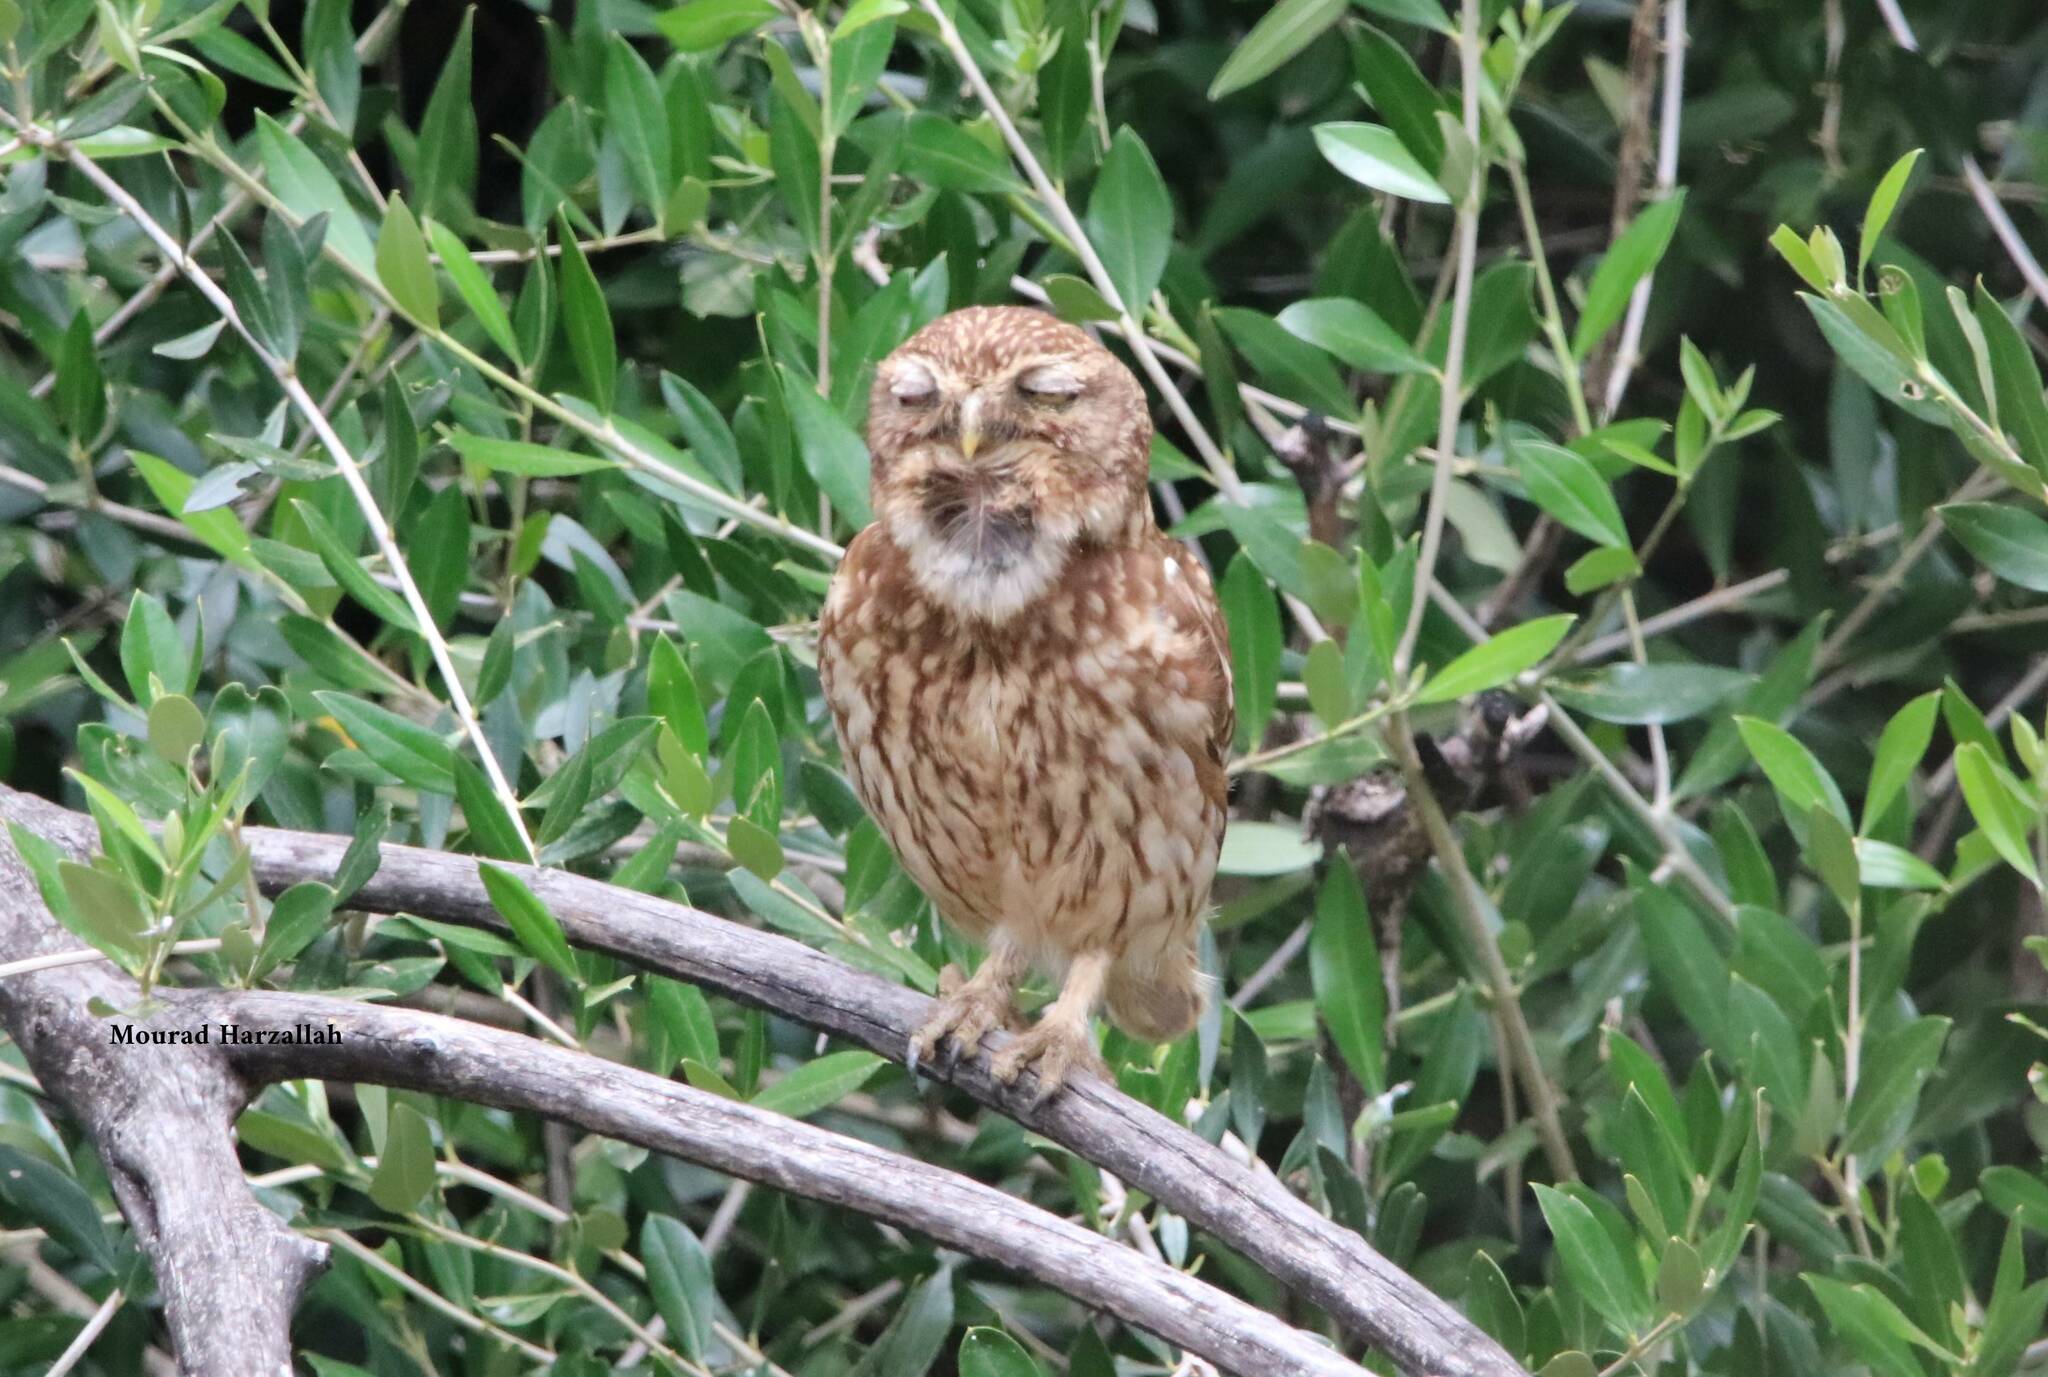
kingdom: Animalia
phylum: Chordata
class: Aves
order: Strigiformes
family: Strigidae
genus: Athene
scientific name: Athene noctua
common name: Little owl
